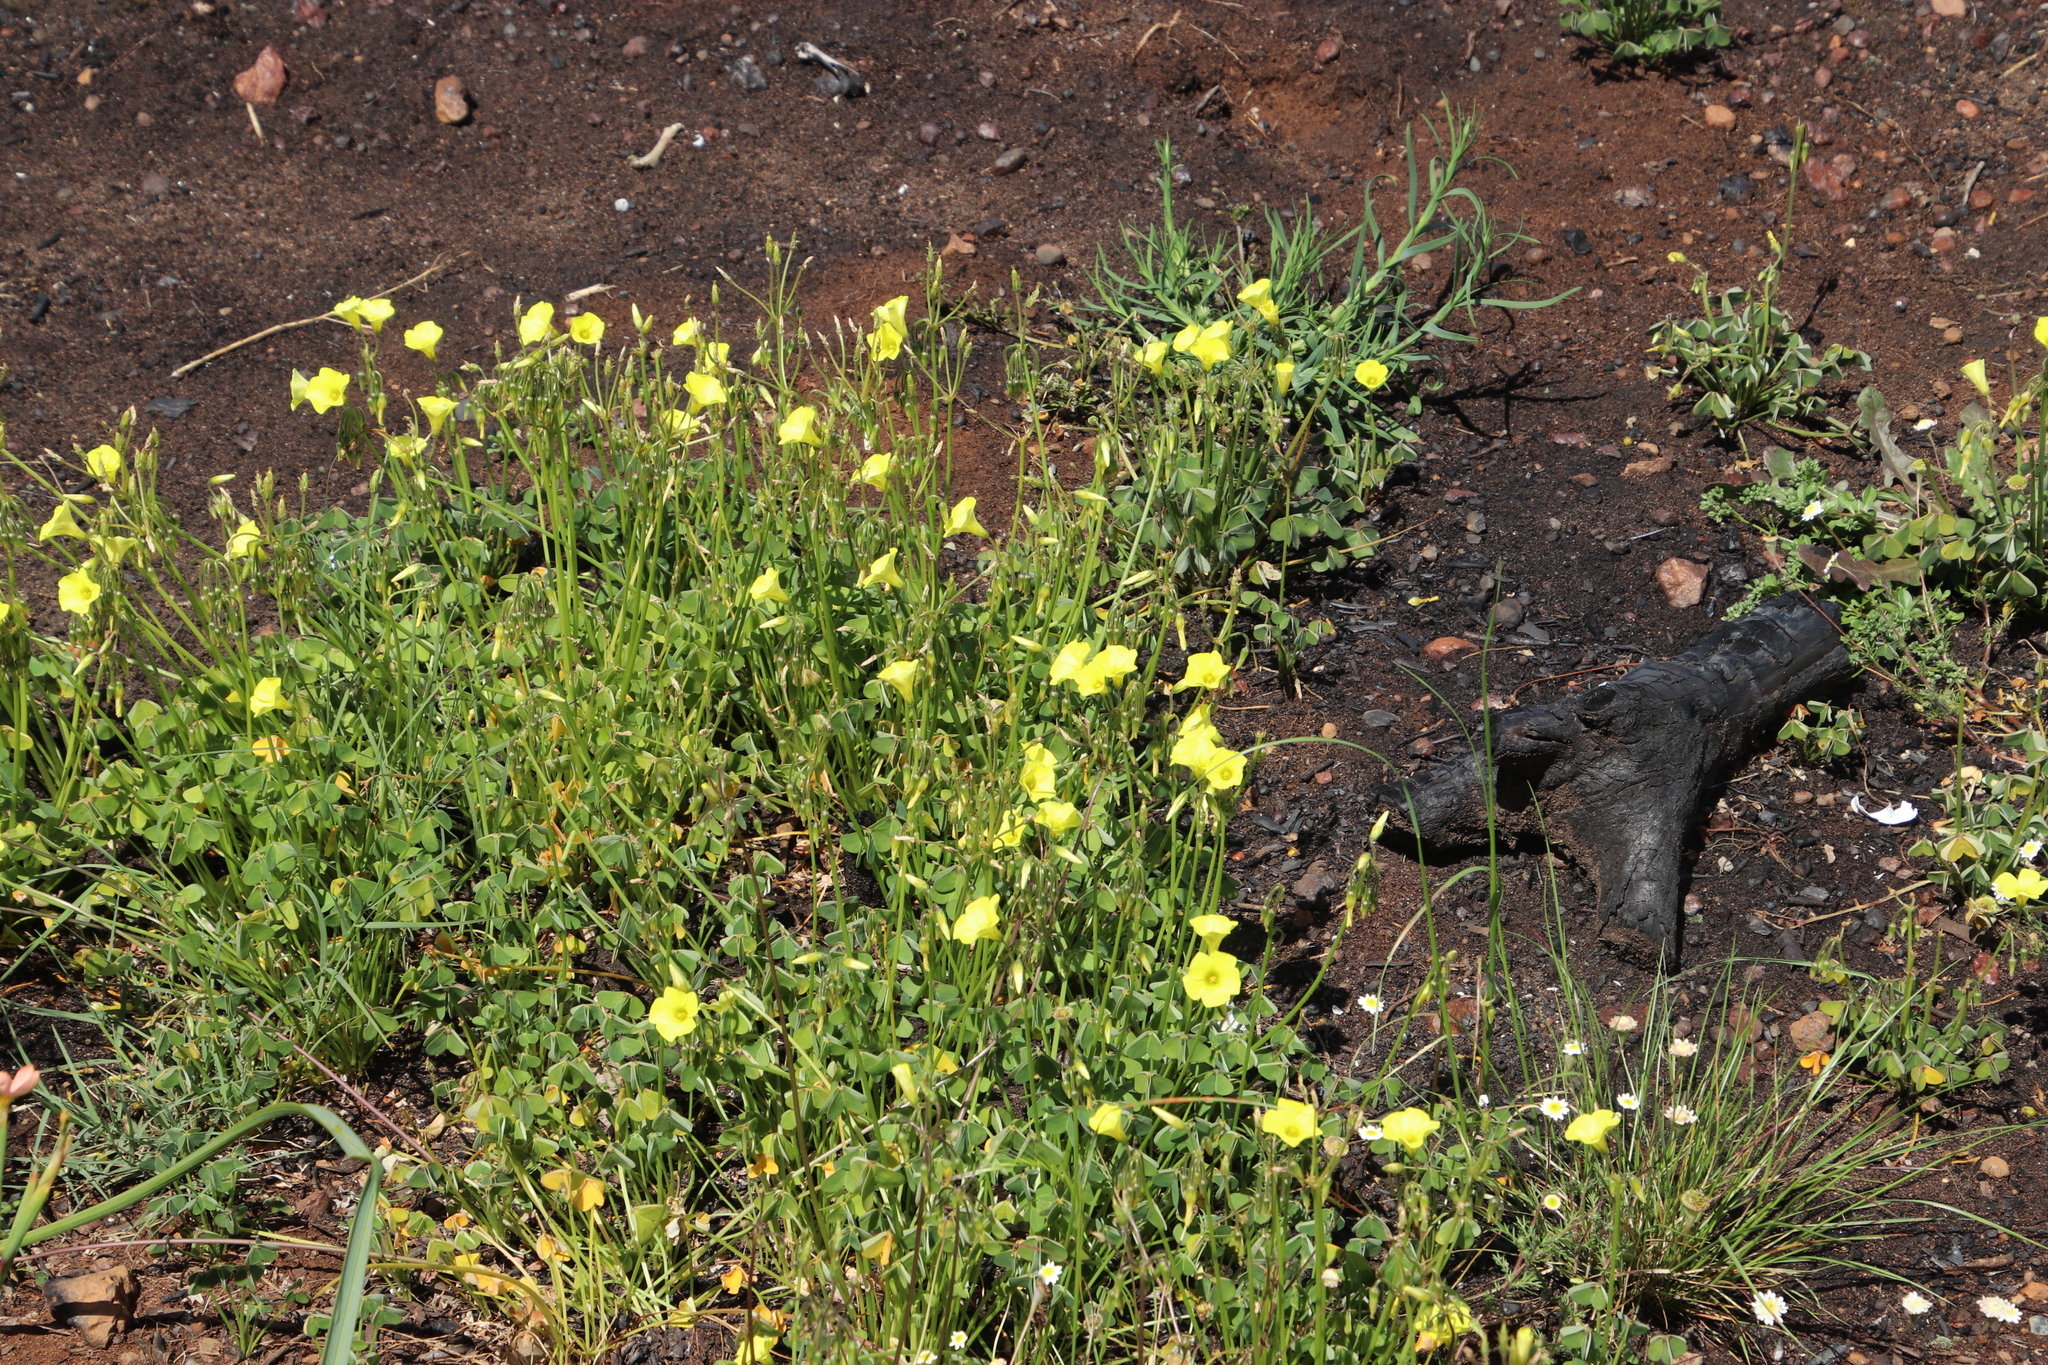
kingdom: Plantae
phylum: Tracheophyta
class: Magnoliopsida
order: Oxalidales
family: Oxalidaceae
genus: Oxalis
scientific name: Oxalis pes-caprae
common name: Bermuda-buttercup
